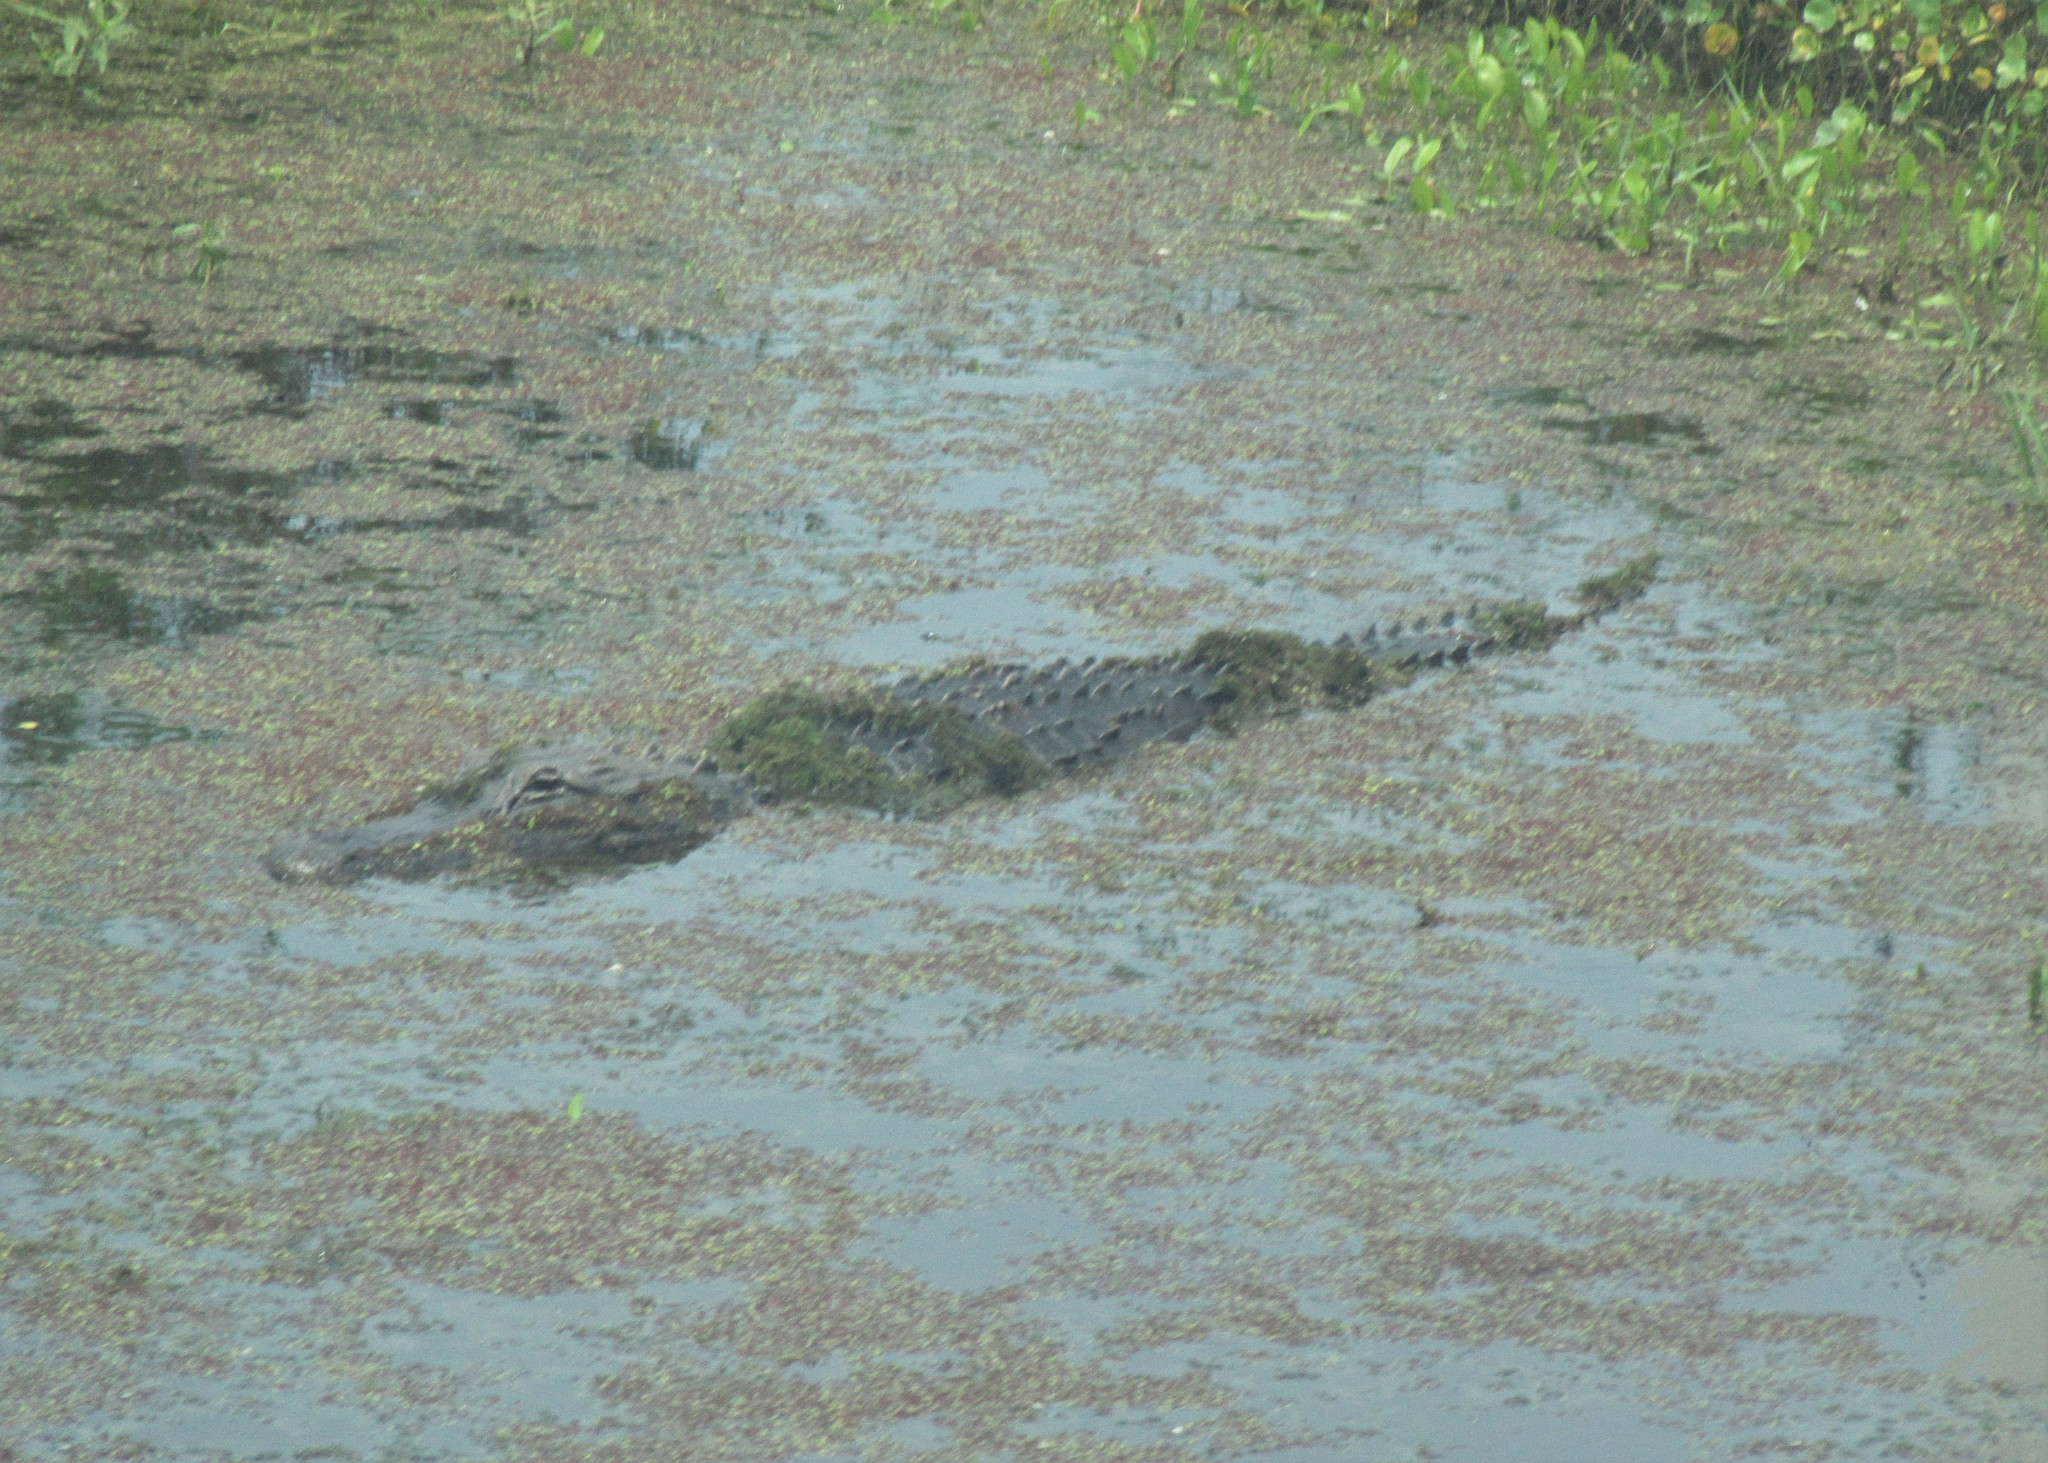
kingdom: Animalia
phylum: Chordata
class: Crocodylia
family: Alligatoridae
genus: Alligator
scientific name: Alligator mississippiensis
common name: American alligator
